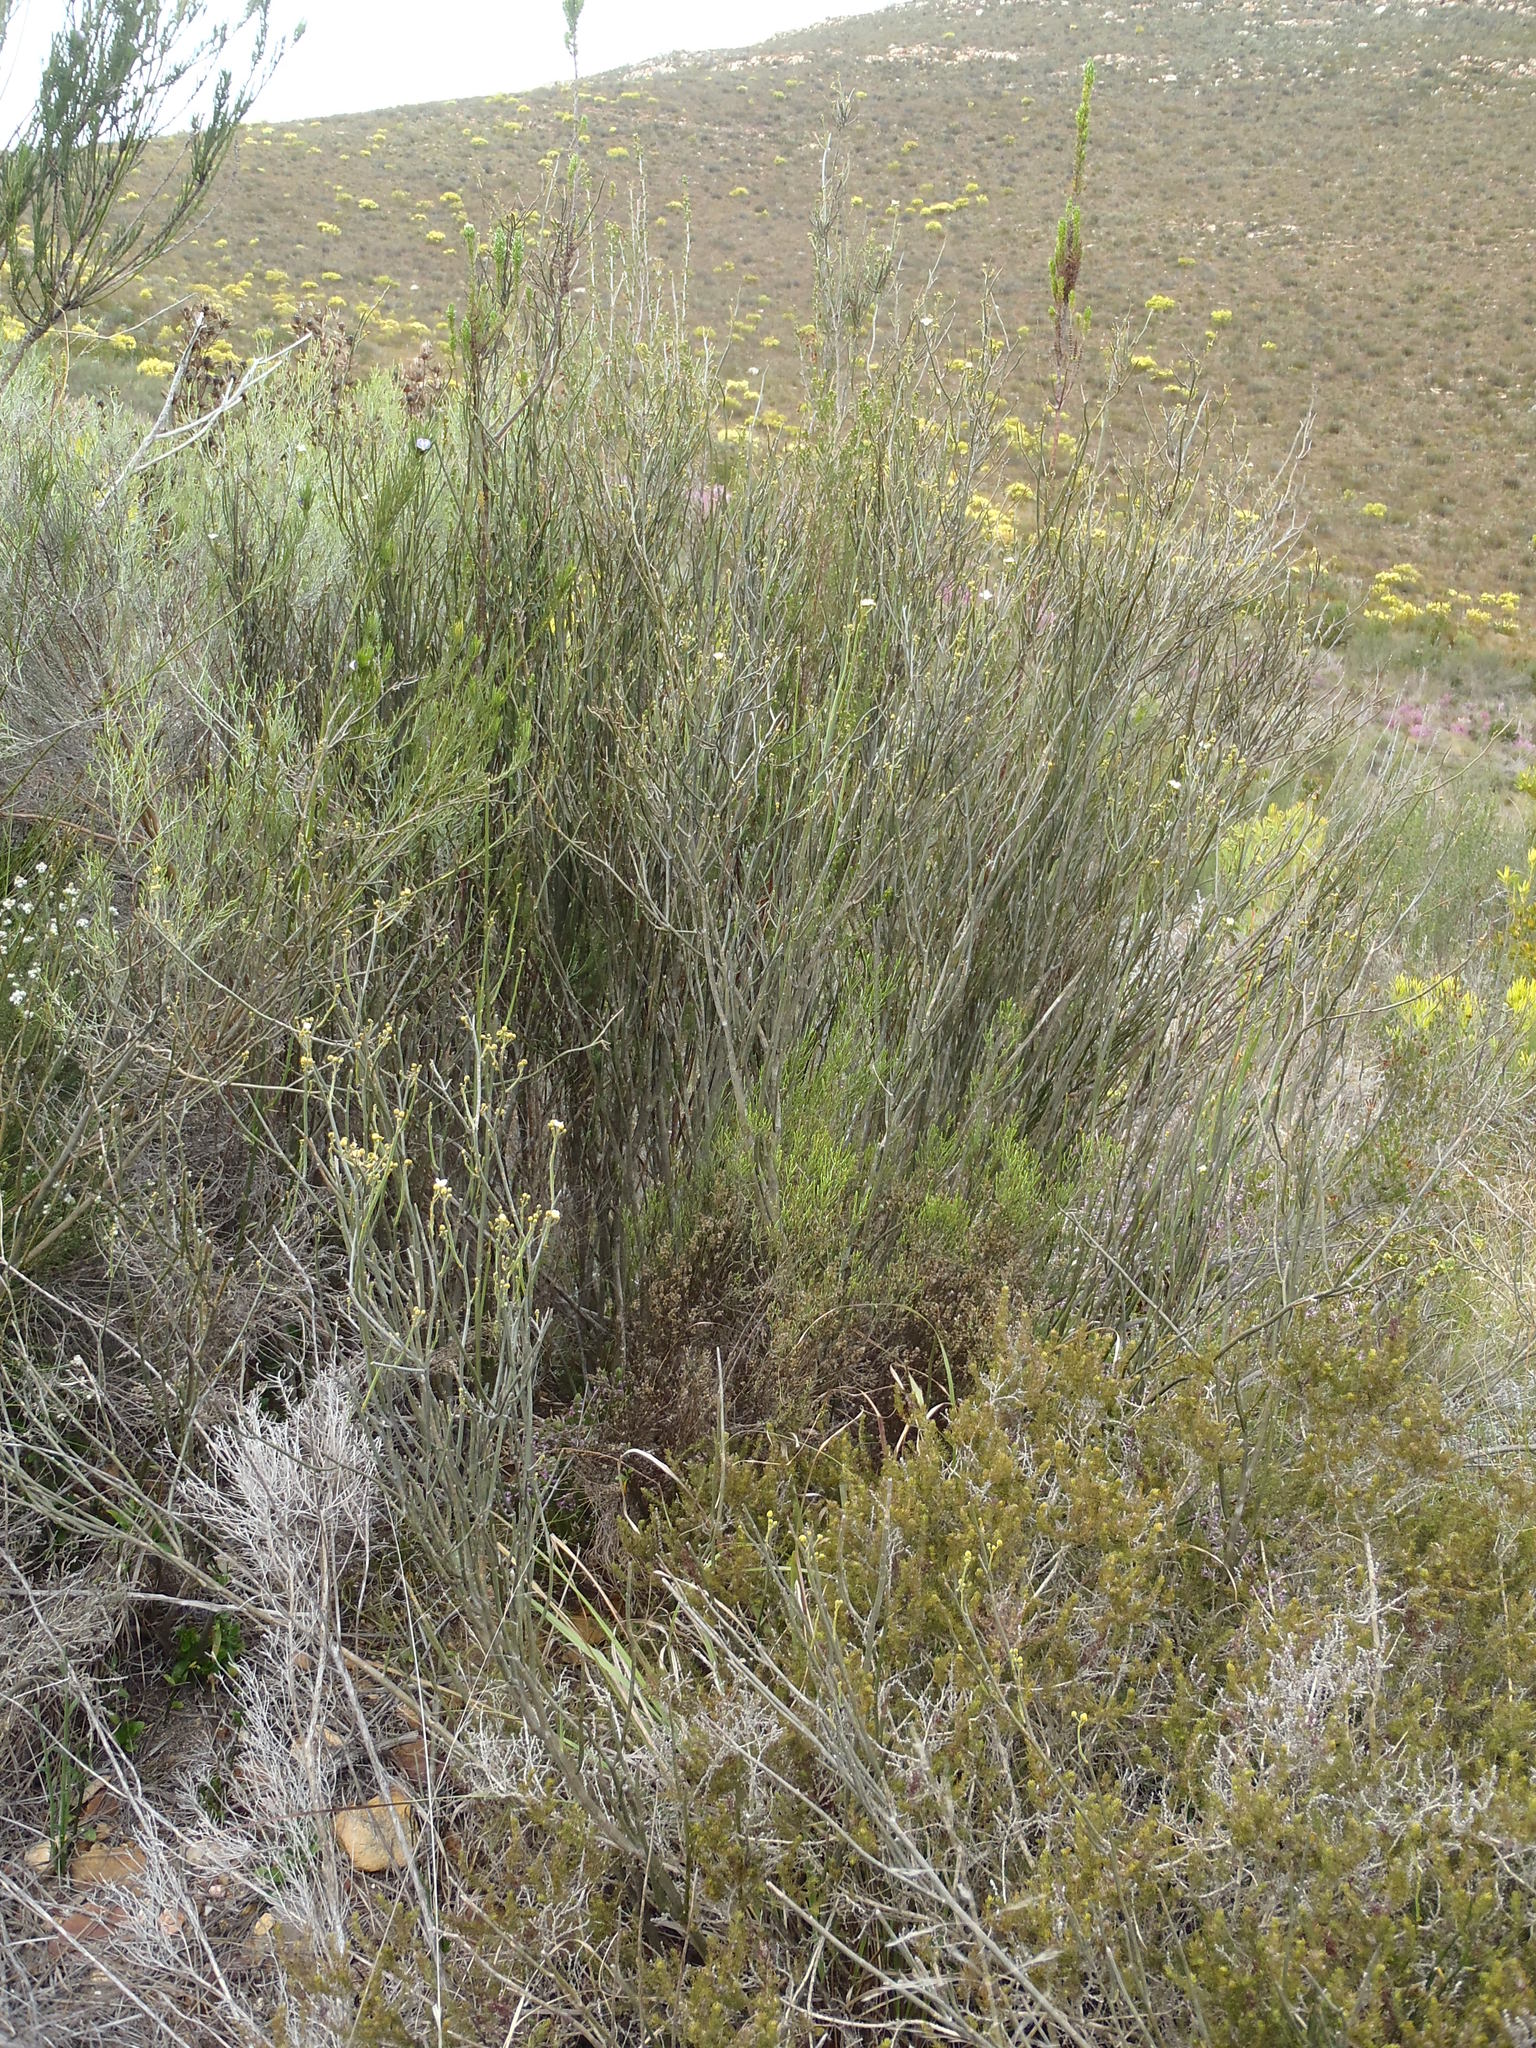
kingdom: Plantae
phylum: Tracheophyta
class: Magnoliopsida
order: Solanales
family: Montiniaceae
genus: Montinia
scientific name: Montinia caryophyllacea
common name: Wild clove-bush
